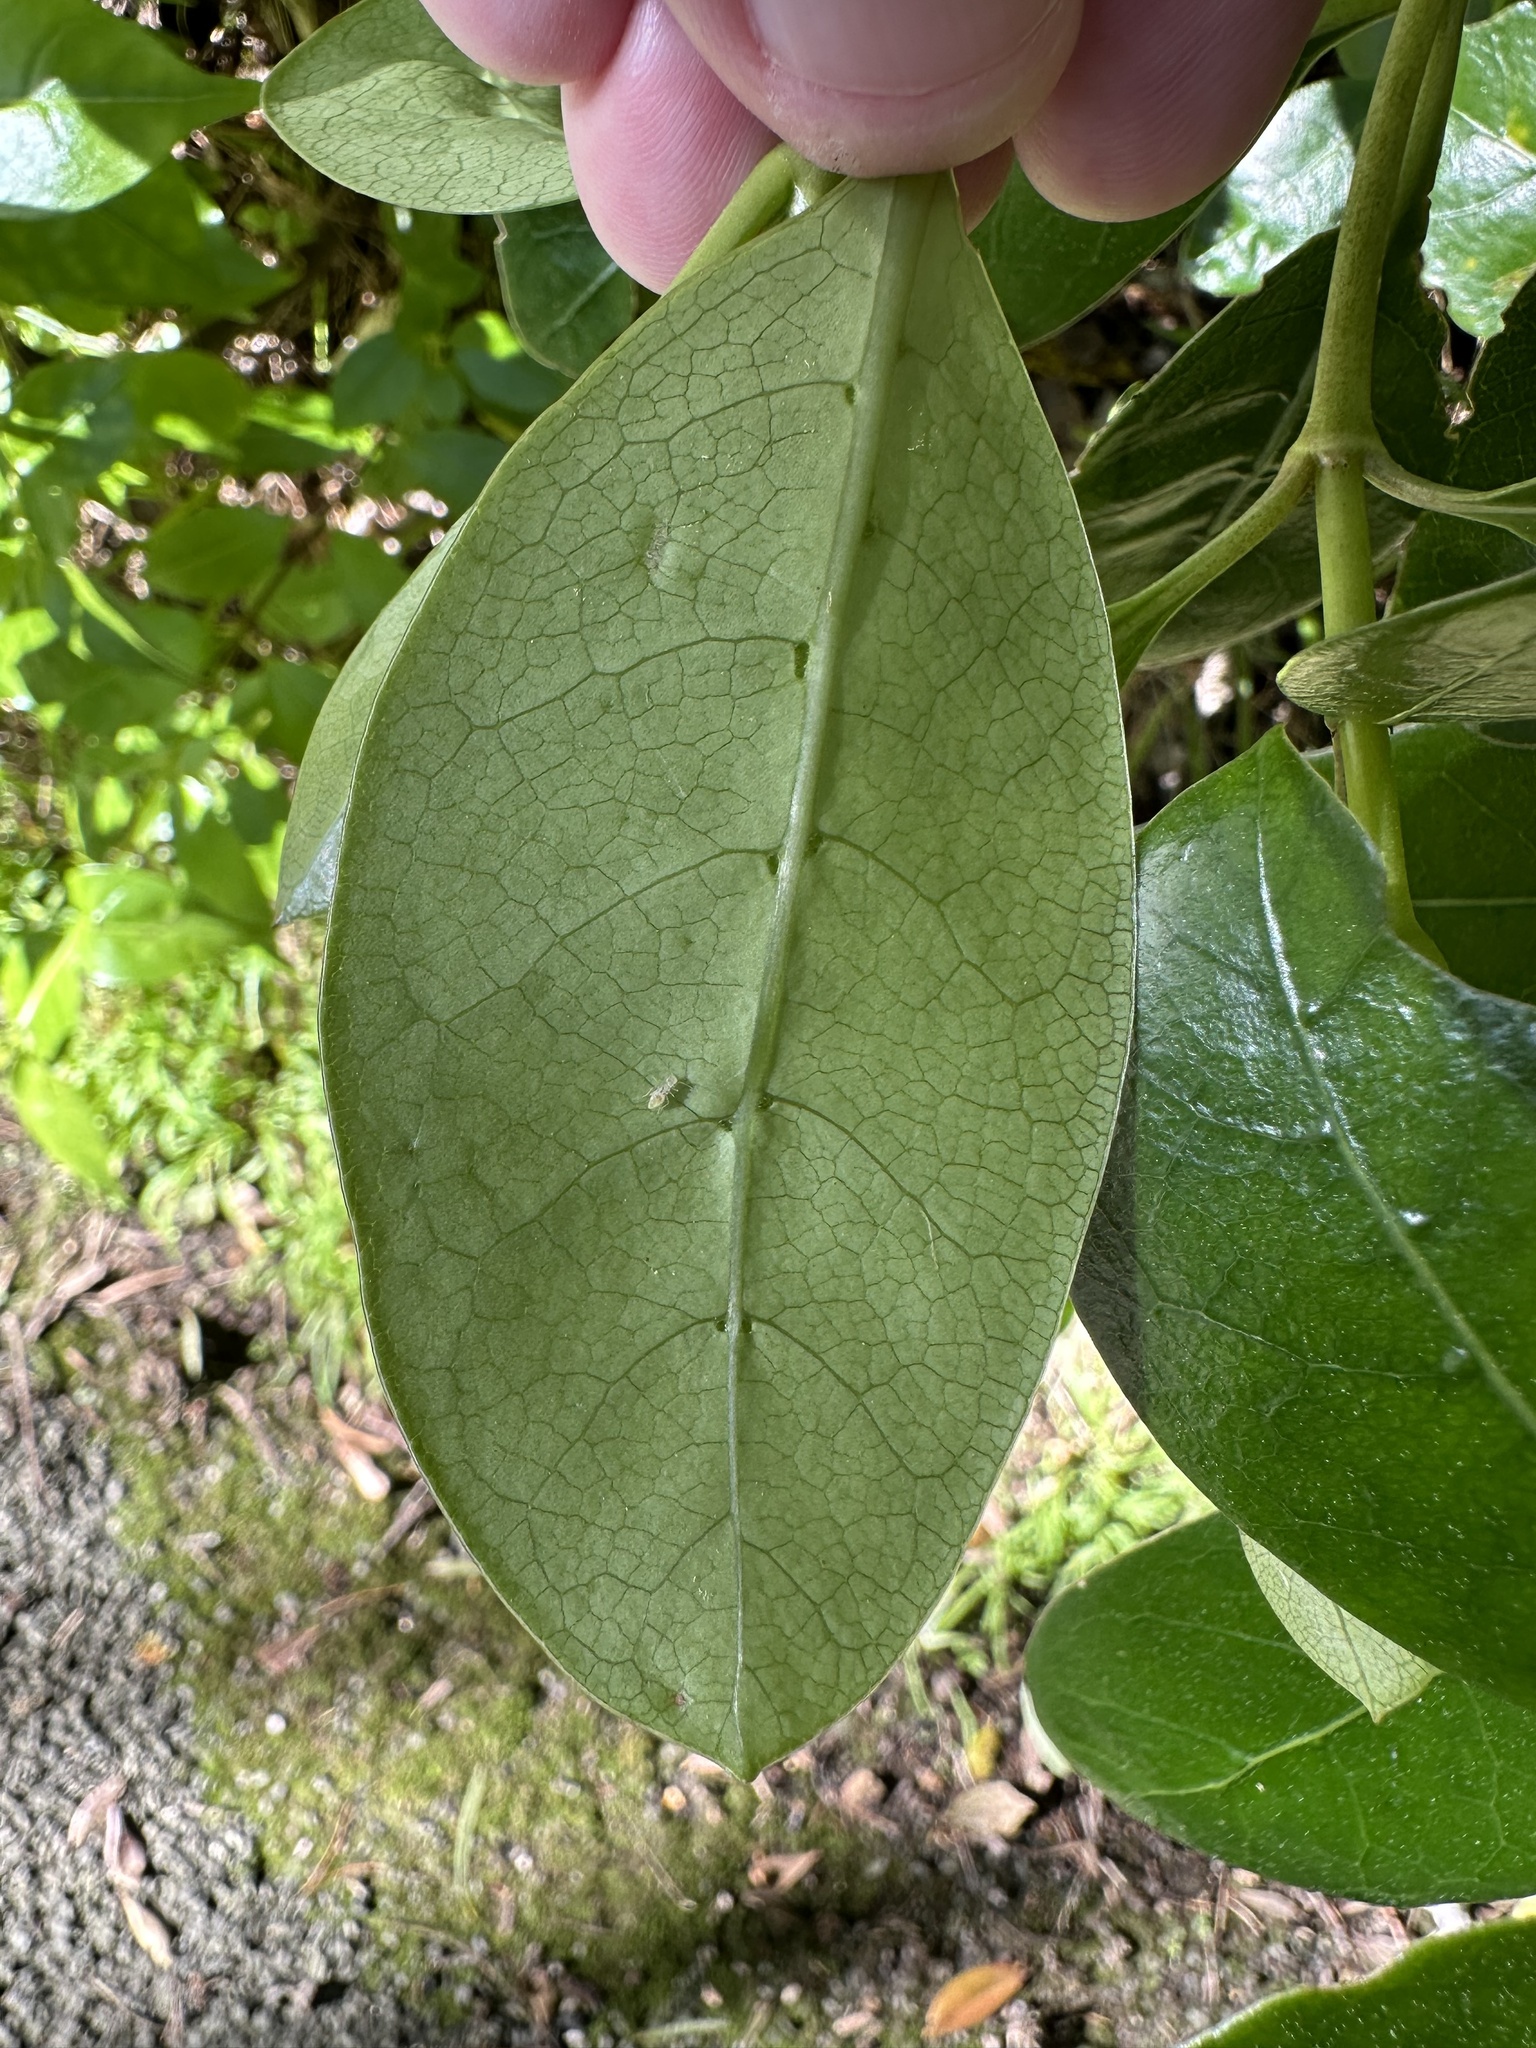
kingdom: Plantae
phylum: Tracheophyta
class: Magnoliopsida
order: Gentianales
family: Rubiaceae
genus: Coprosma
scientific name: Coprosma lucida
